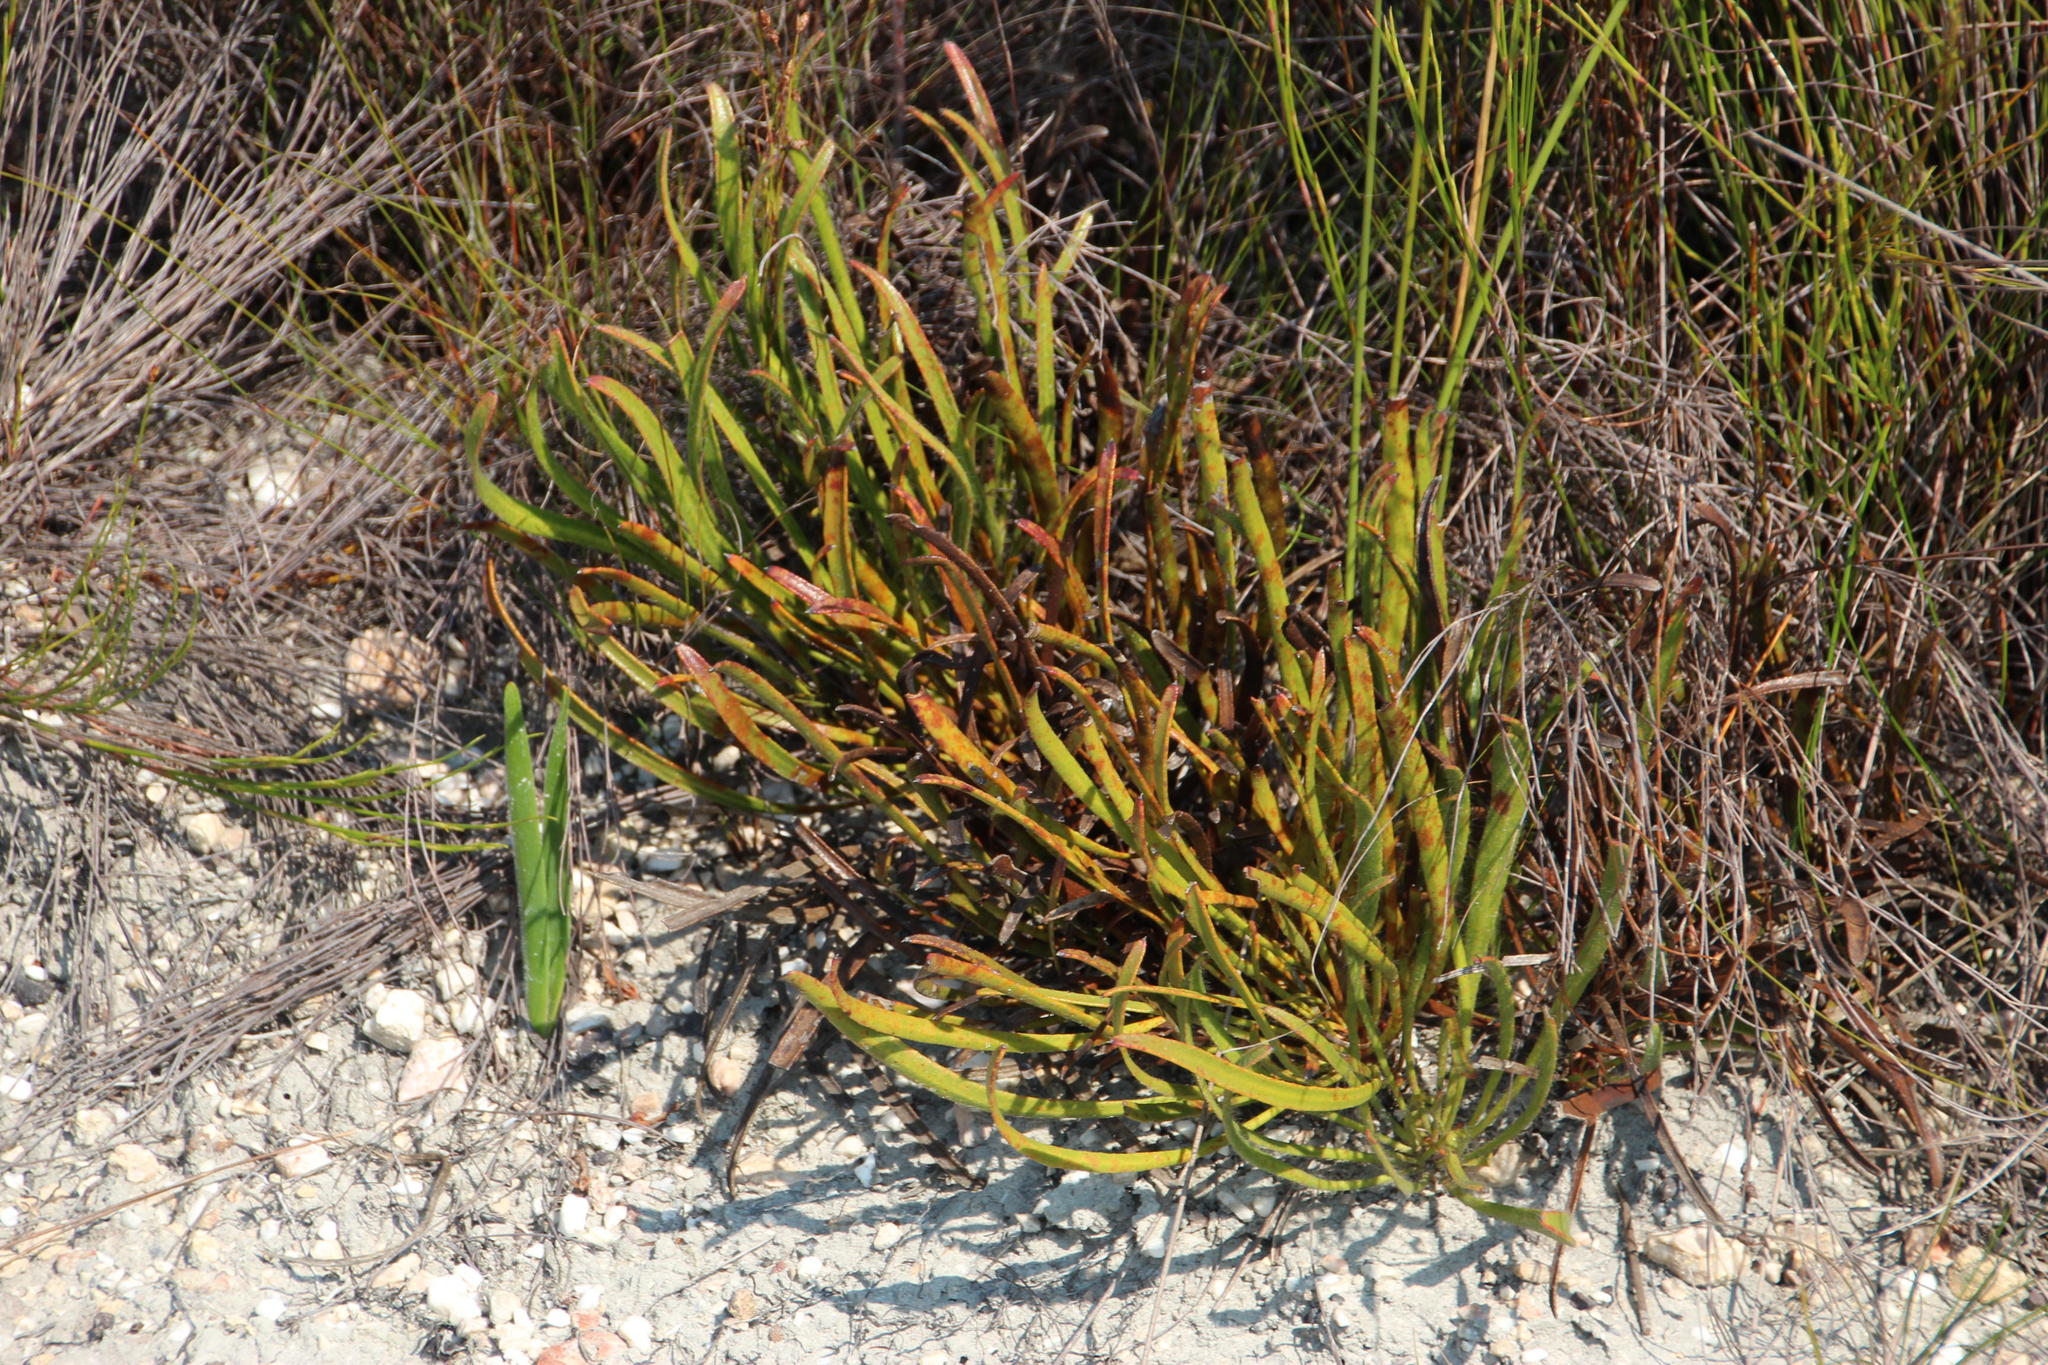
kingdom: Plantae
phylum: Tracheophyta
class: Magnoliopsida
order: Proteales
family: Proteaceae
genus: Protea
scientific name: Protea aspera
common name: Rough-leaf sugarbush
